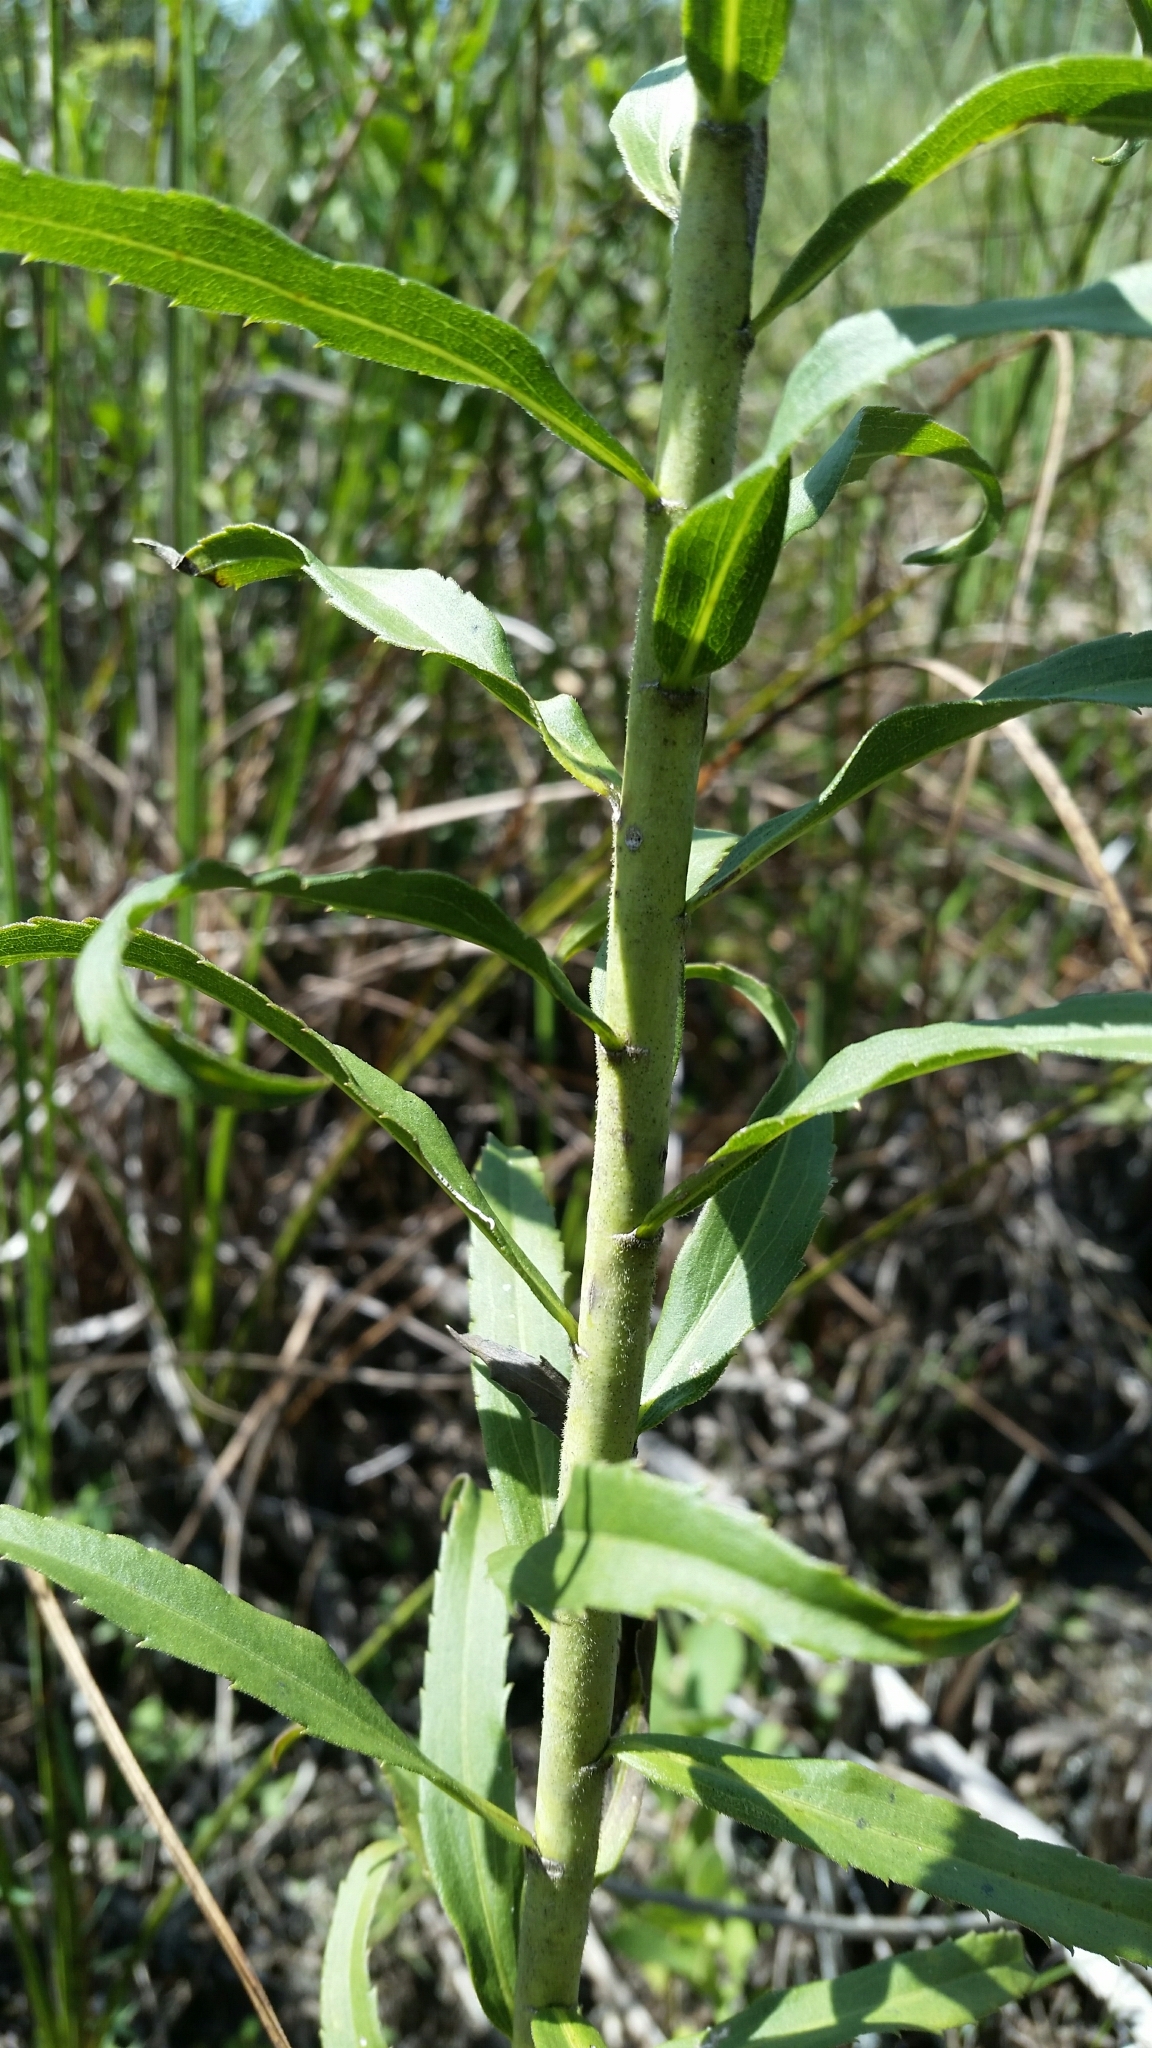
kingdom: Plantae
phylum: Tracheophyta
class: Magnoliopsida
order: Asterales
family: Asteraceae
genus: Solidago
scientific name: Solidago leavenworthii
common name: Leavenworth's goldenrod
